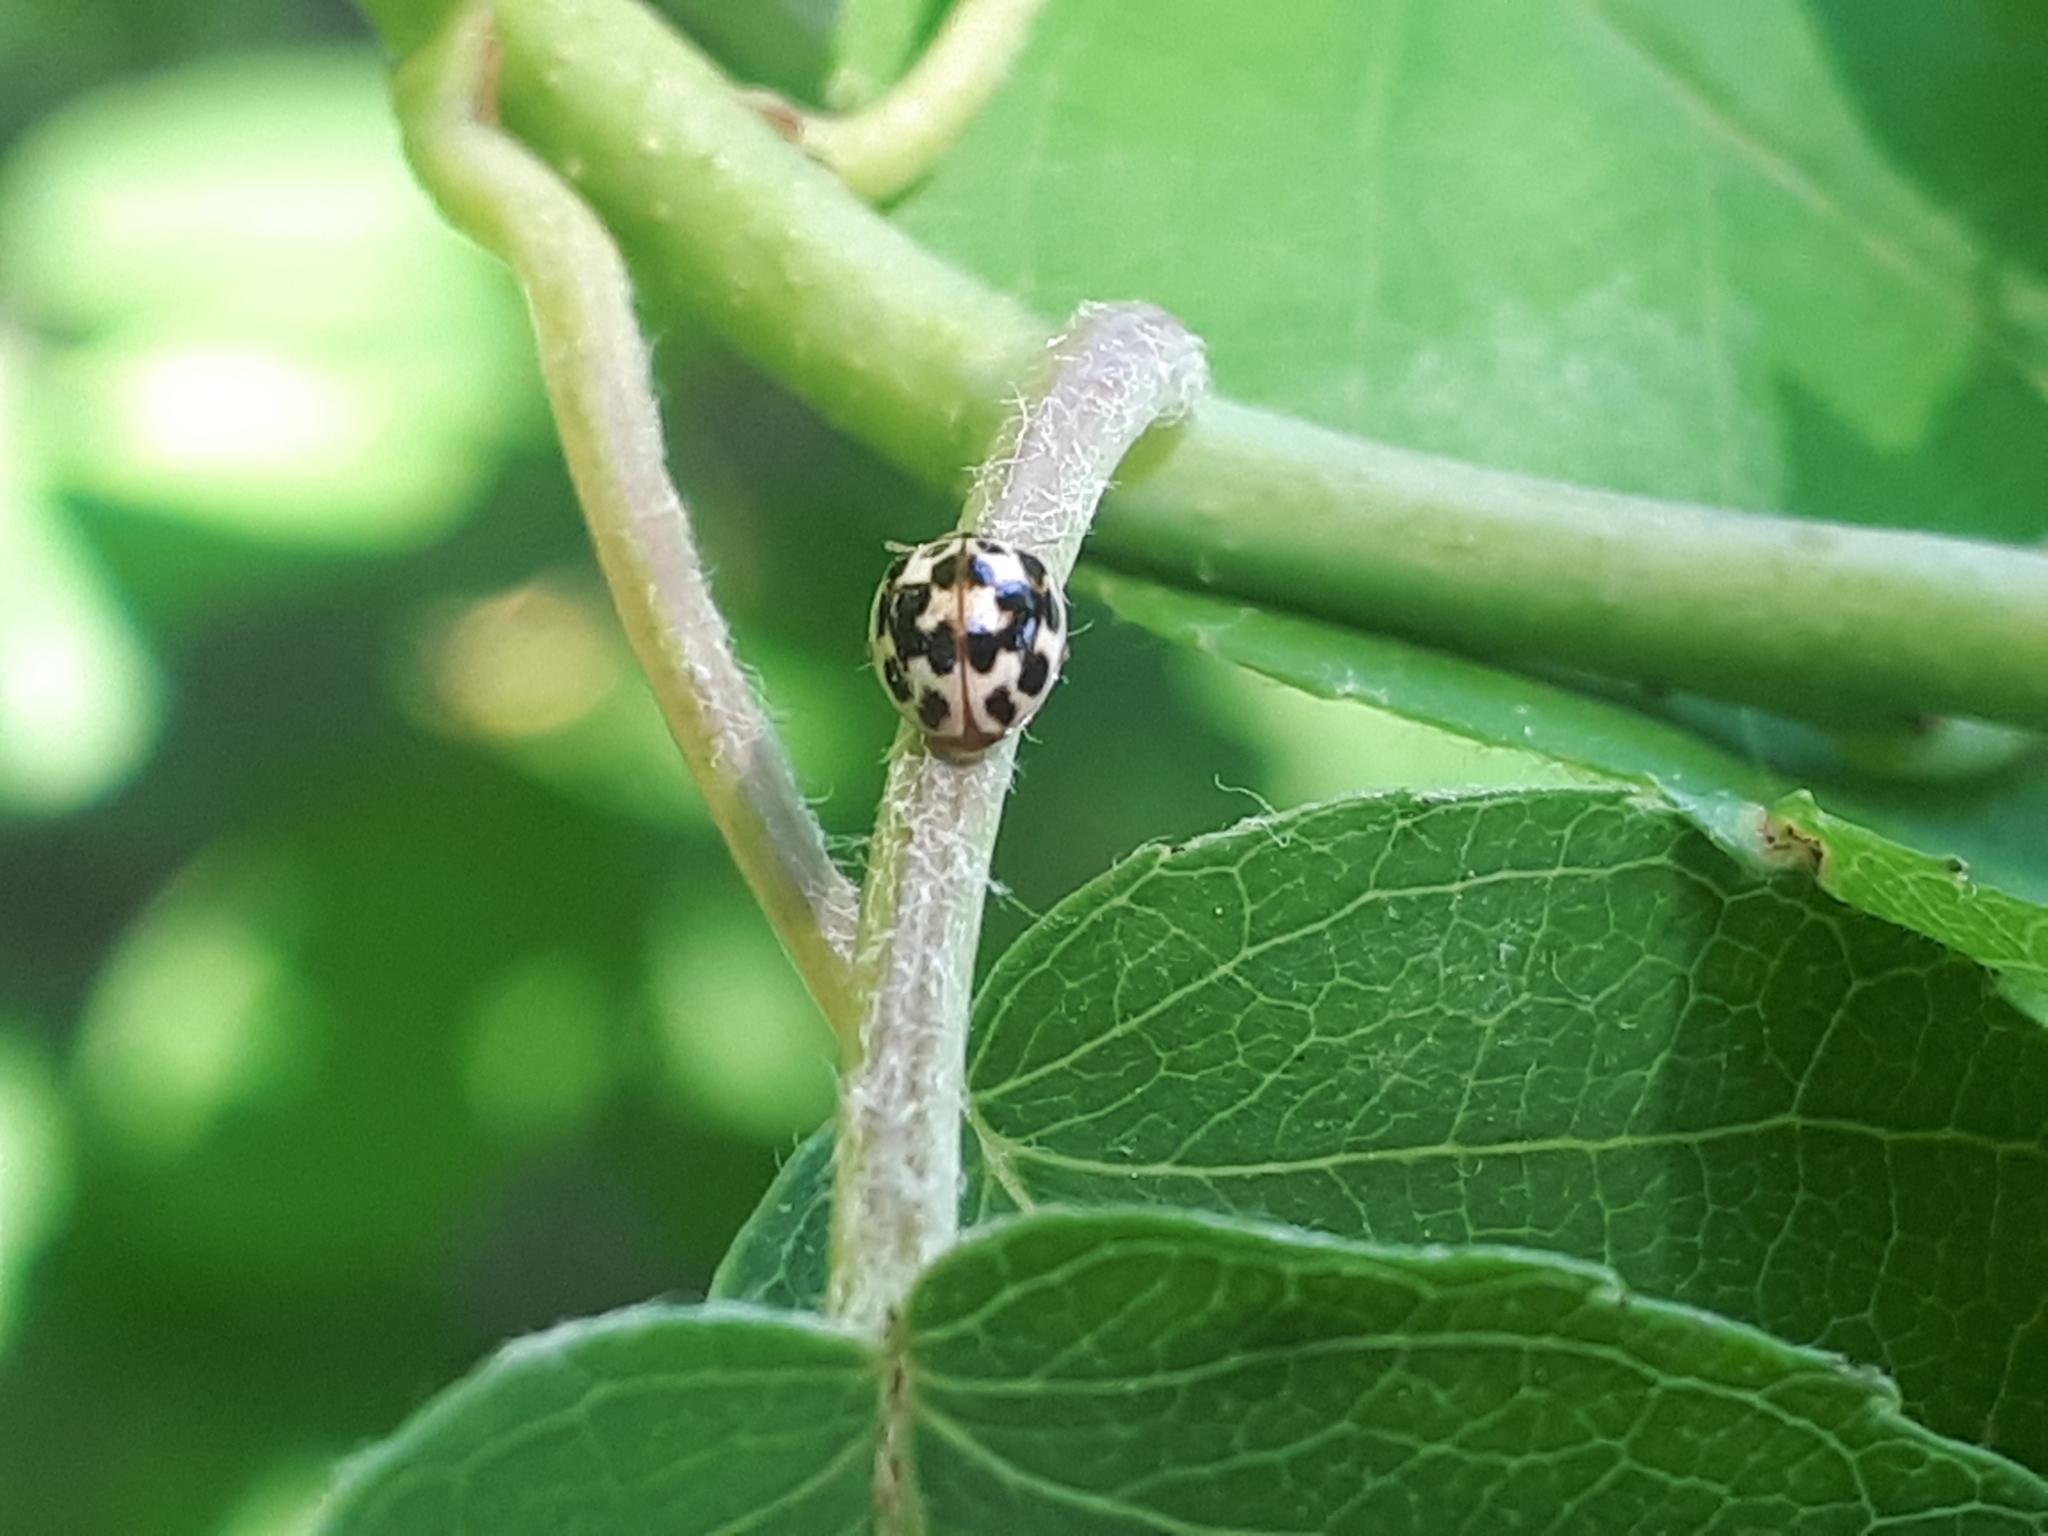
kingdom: Animalia
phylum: Arthropoda
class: Insecta
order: Coleoptera
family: Coccinellidae
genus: Psyllobora
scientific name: Psyllobora vigintimaculata
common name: Ladybird beetle
